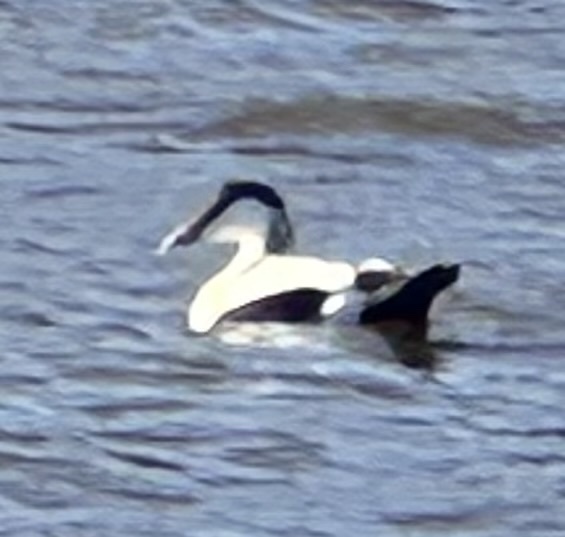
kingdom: Animalia
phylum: Chordata
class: Aves
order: Anseriformes
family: Anatidae
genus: Somateria
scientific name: Somateria mollissima
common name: Common eider
